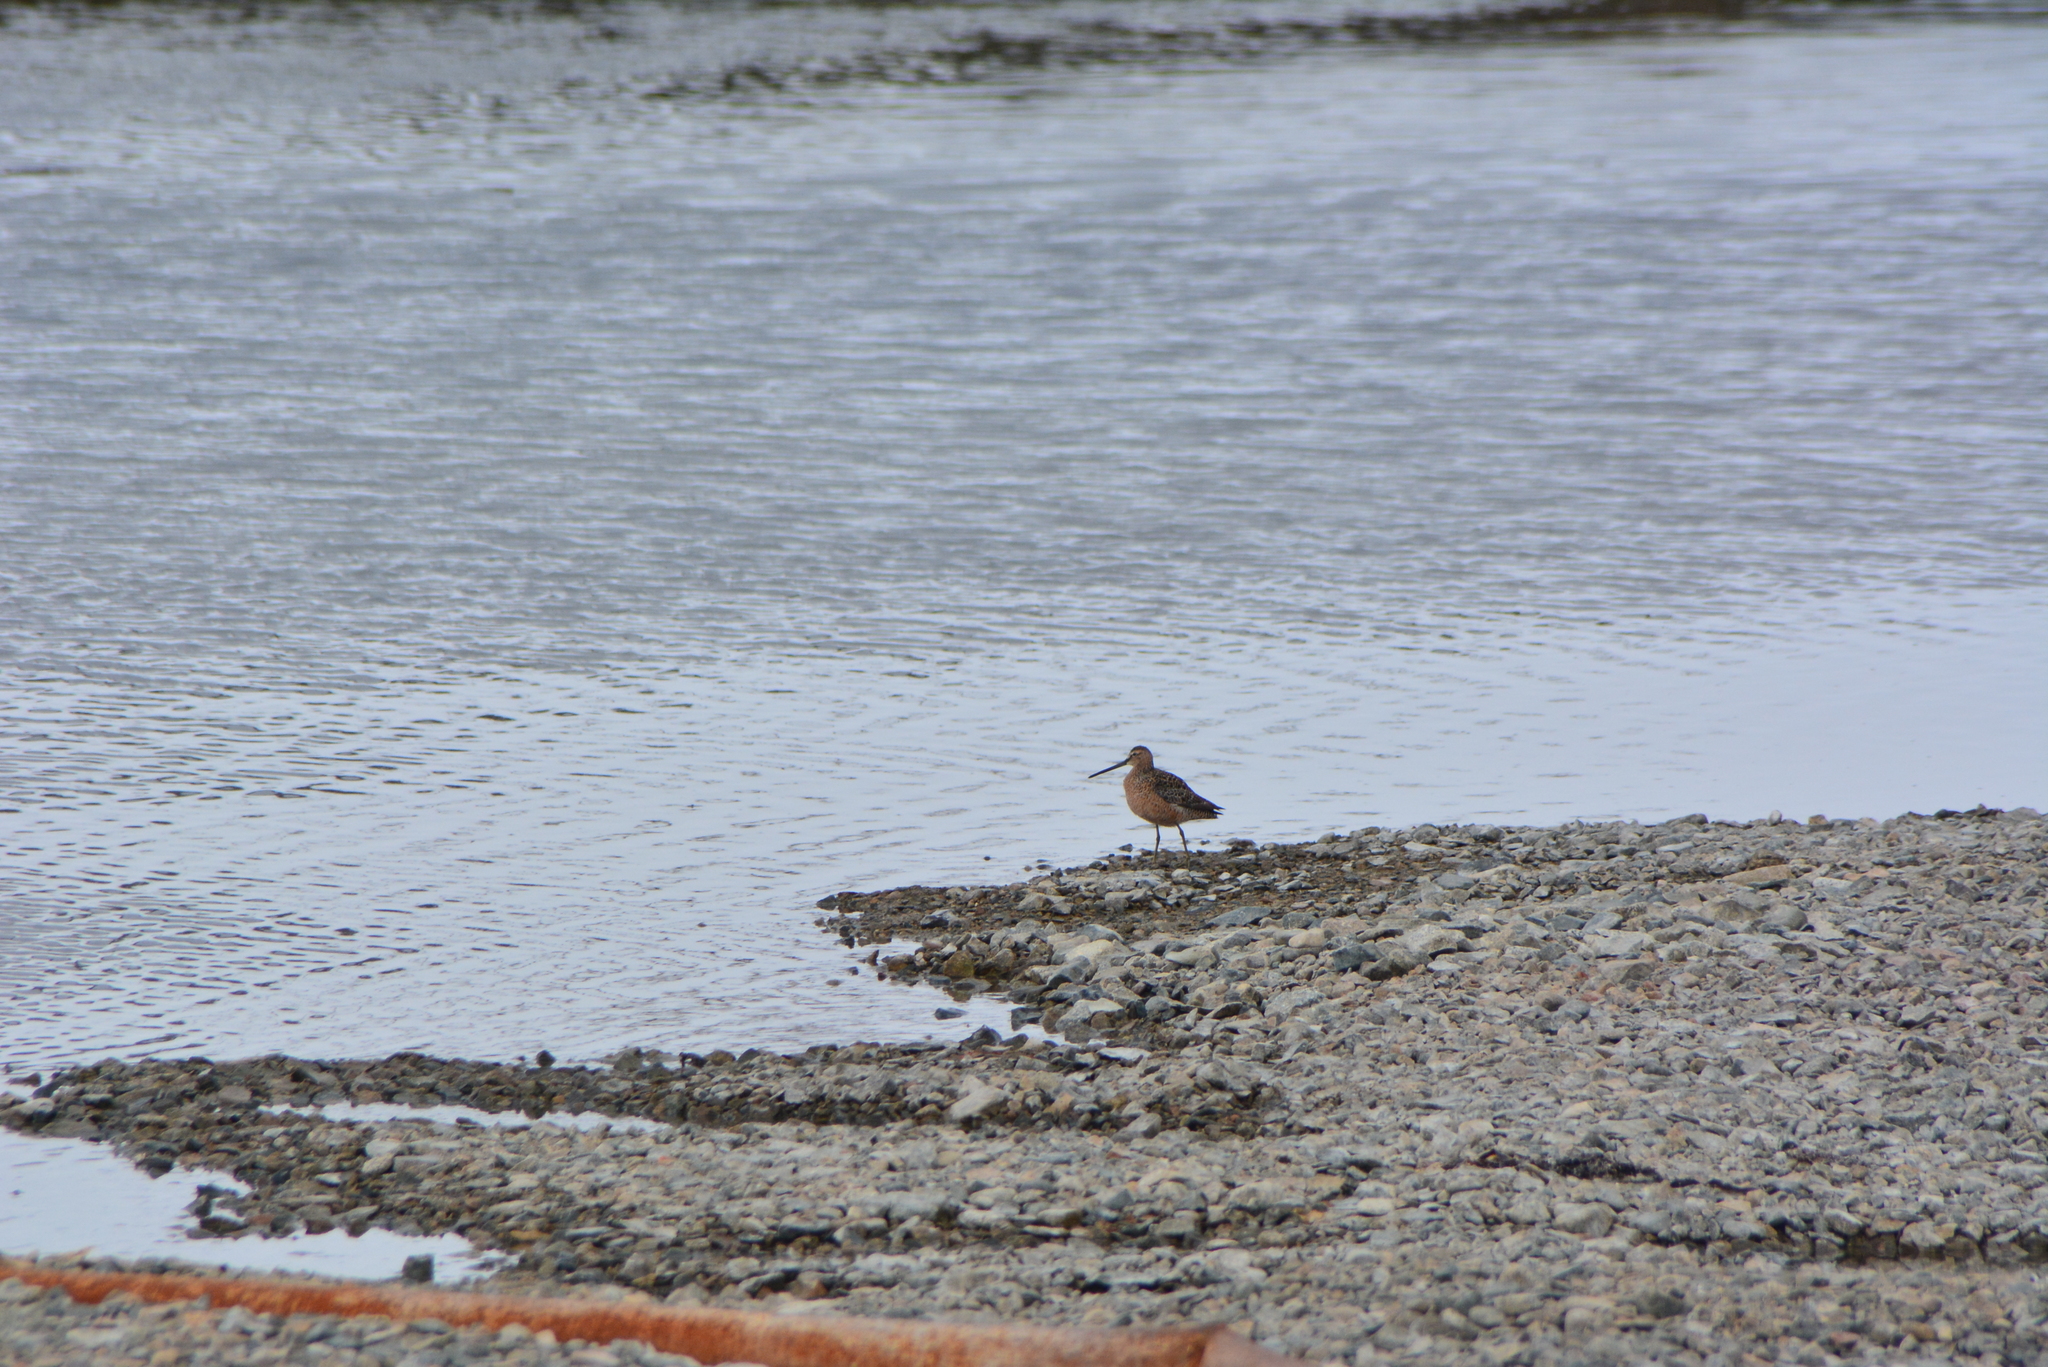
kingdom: Animalia
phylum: Chordata
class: Aves
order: Charadriiformes
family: Scolopacidae
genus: Limnodromus
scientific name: Limnodromus scolopaceus
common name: Long-billed dowitcher
